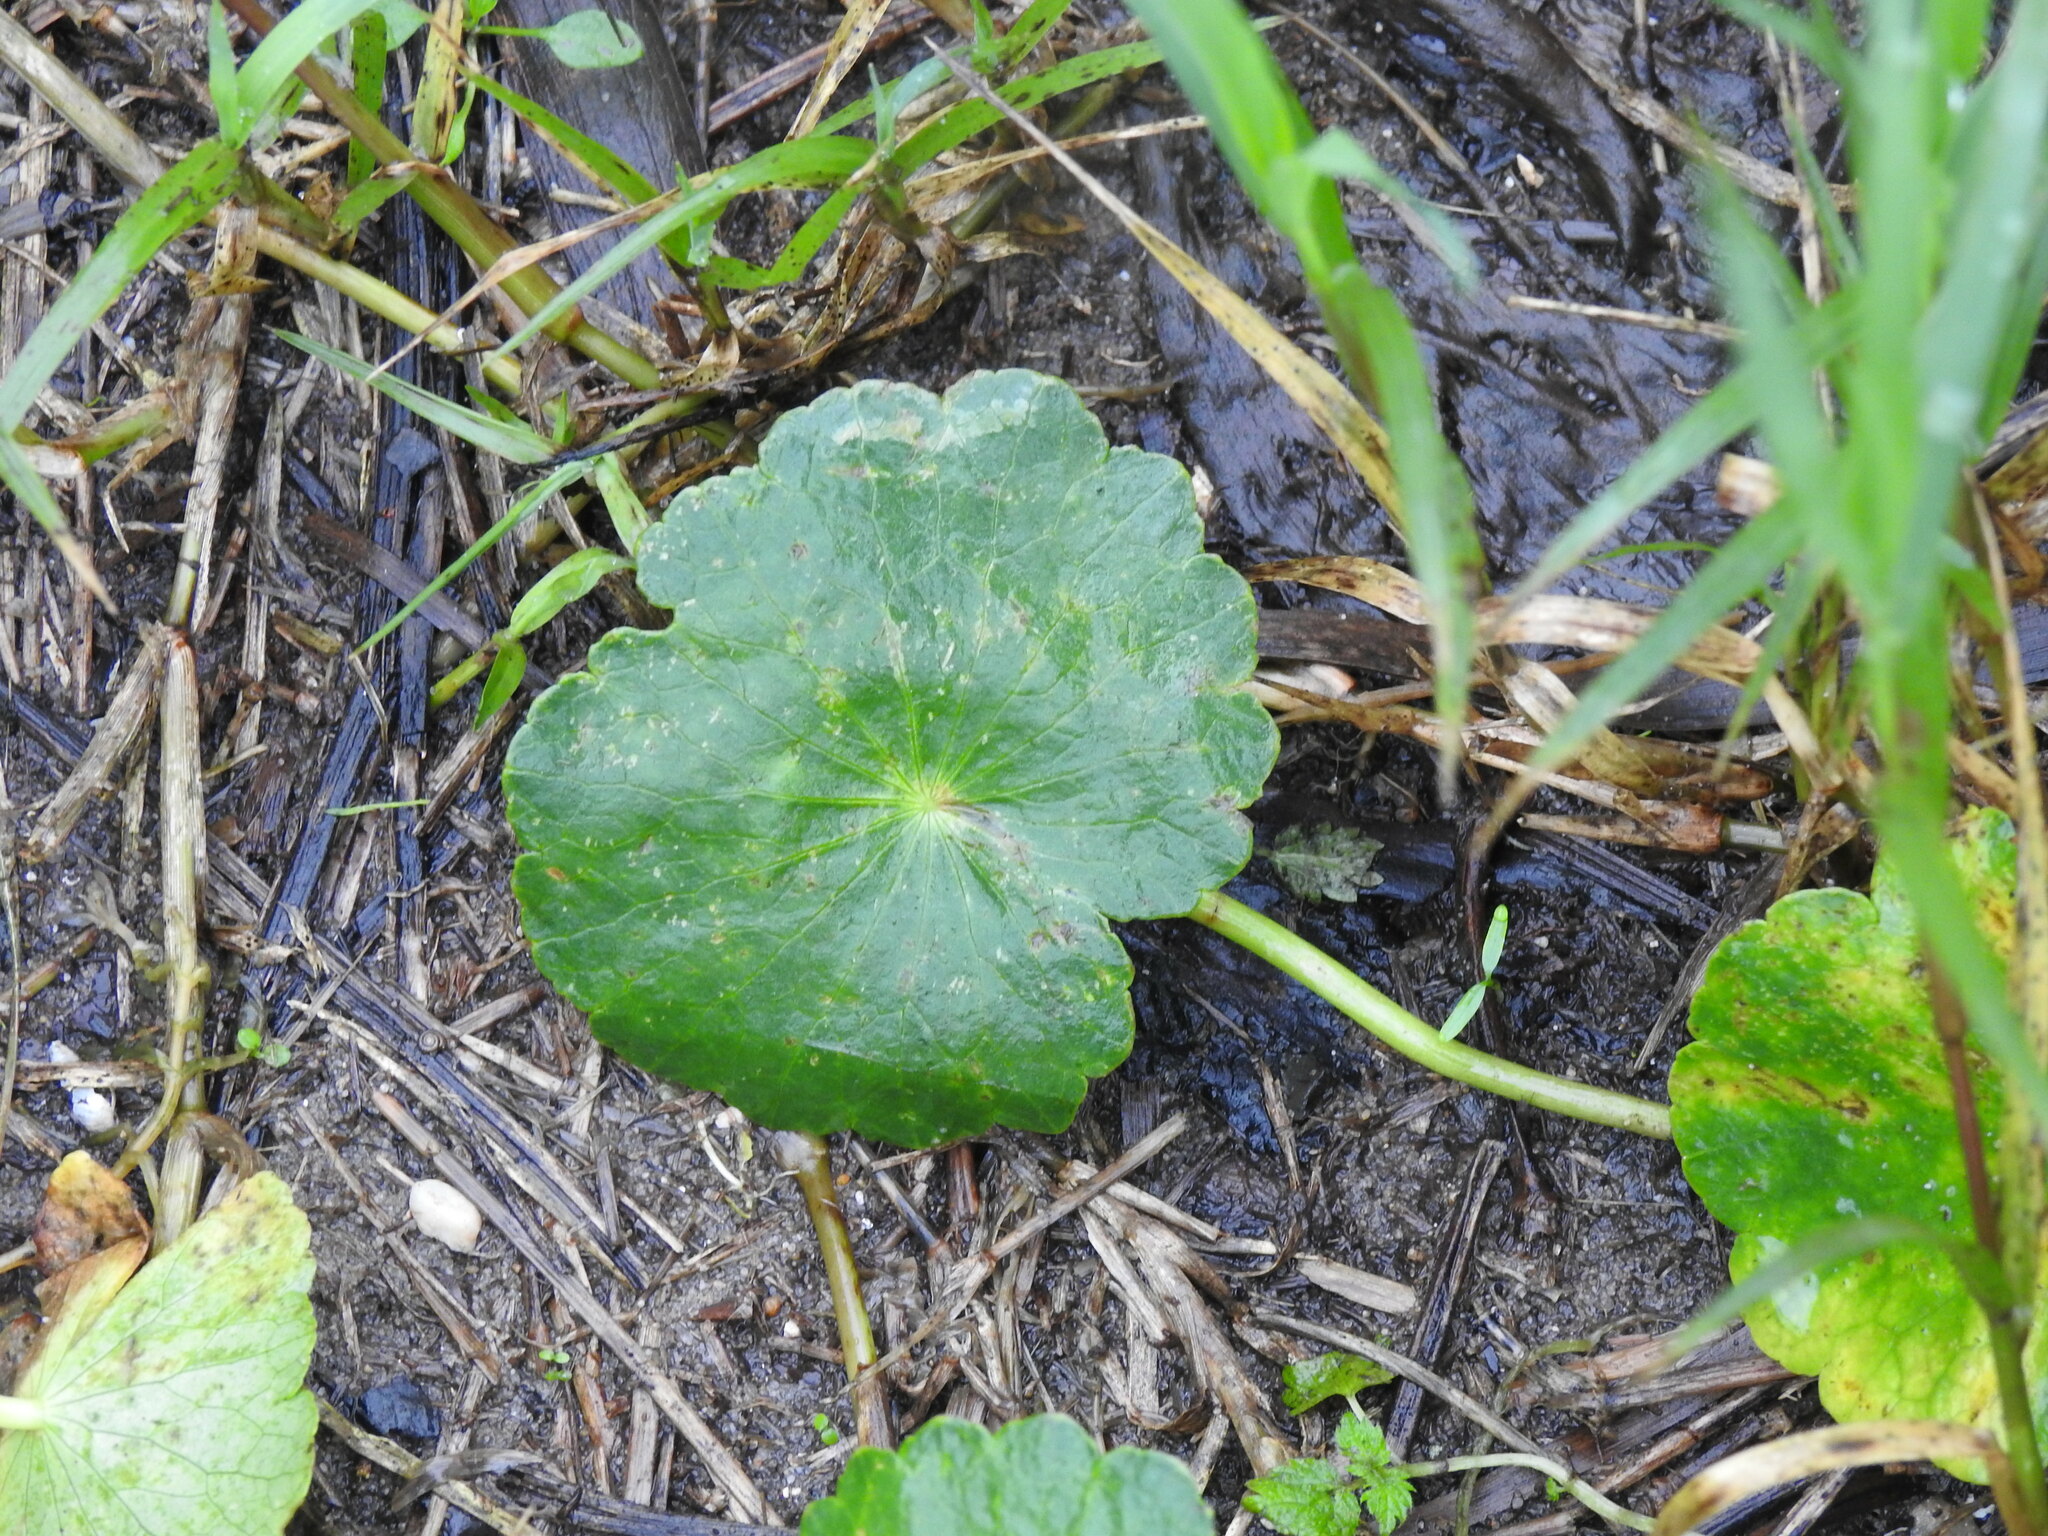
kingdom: Plantae
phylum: Tracheophyta
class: Magnoliopsida
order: Apiales
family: Araliaceae
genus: Hydrocotyle
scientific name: Hydrocotyle bonariensis
